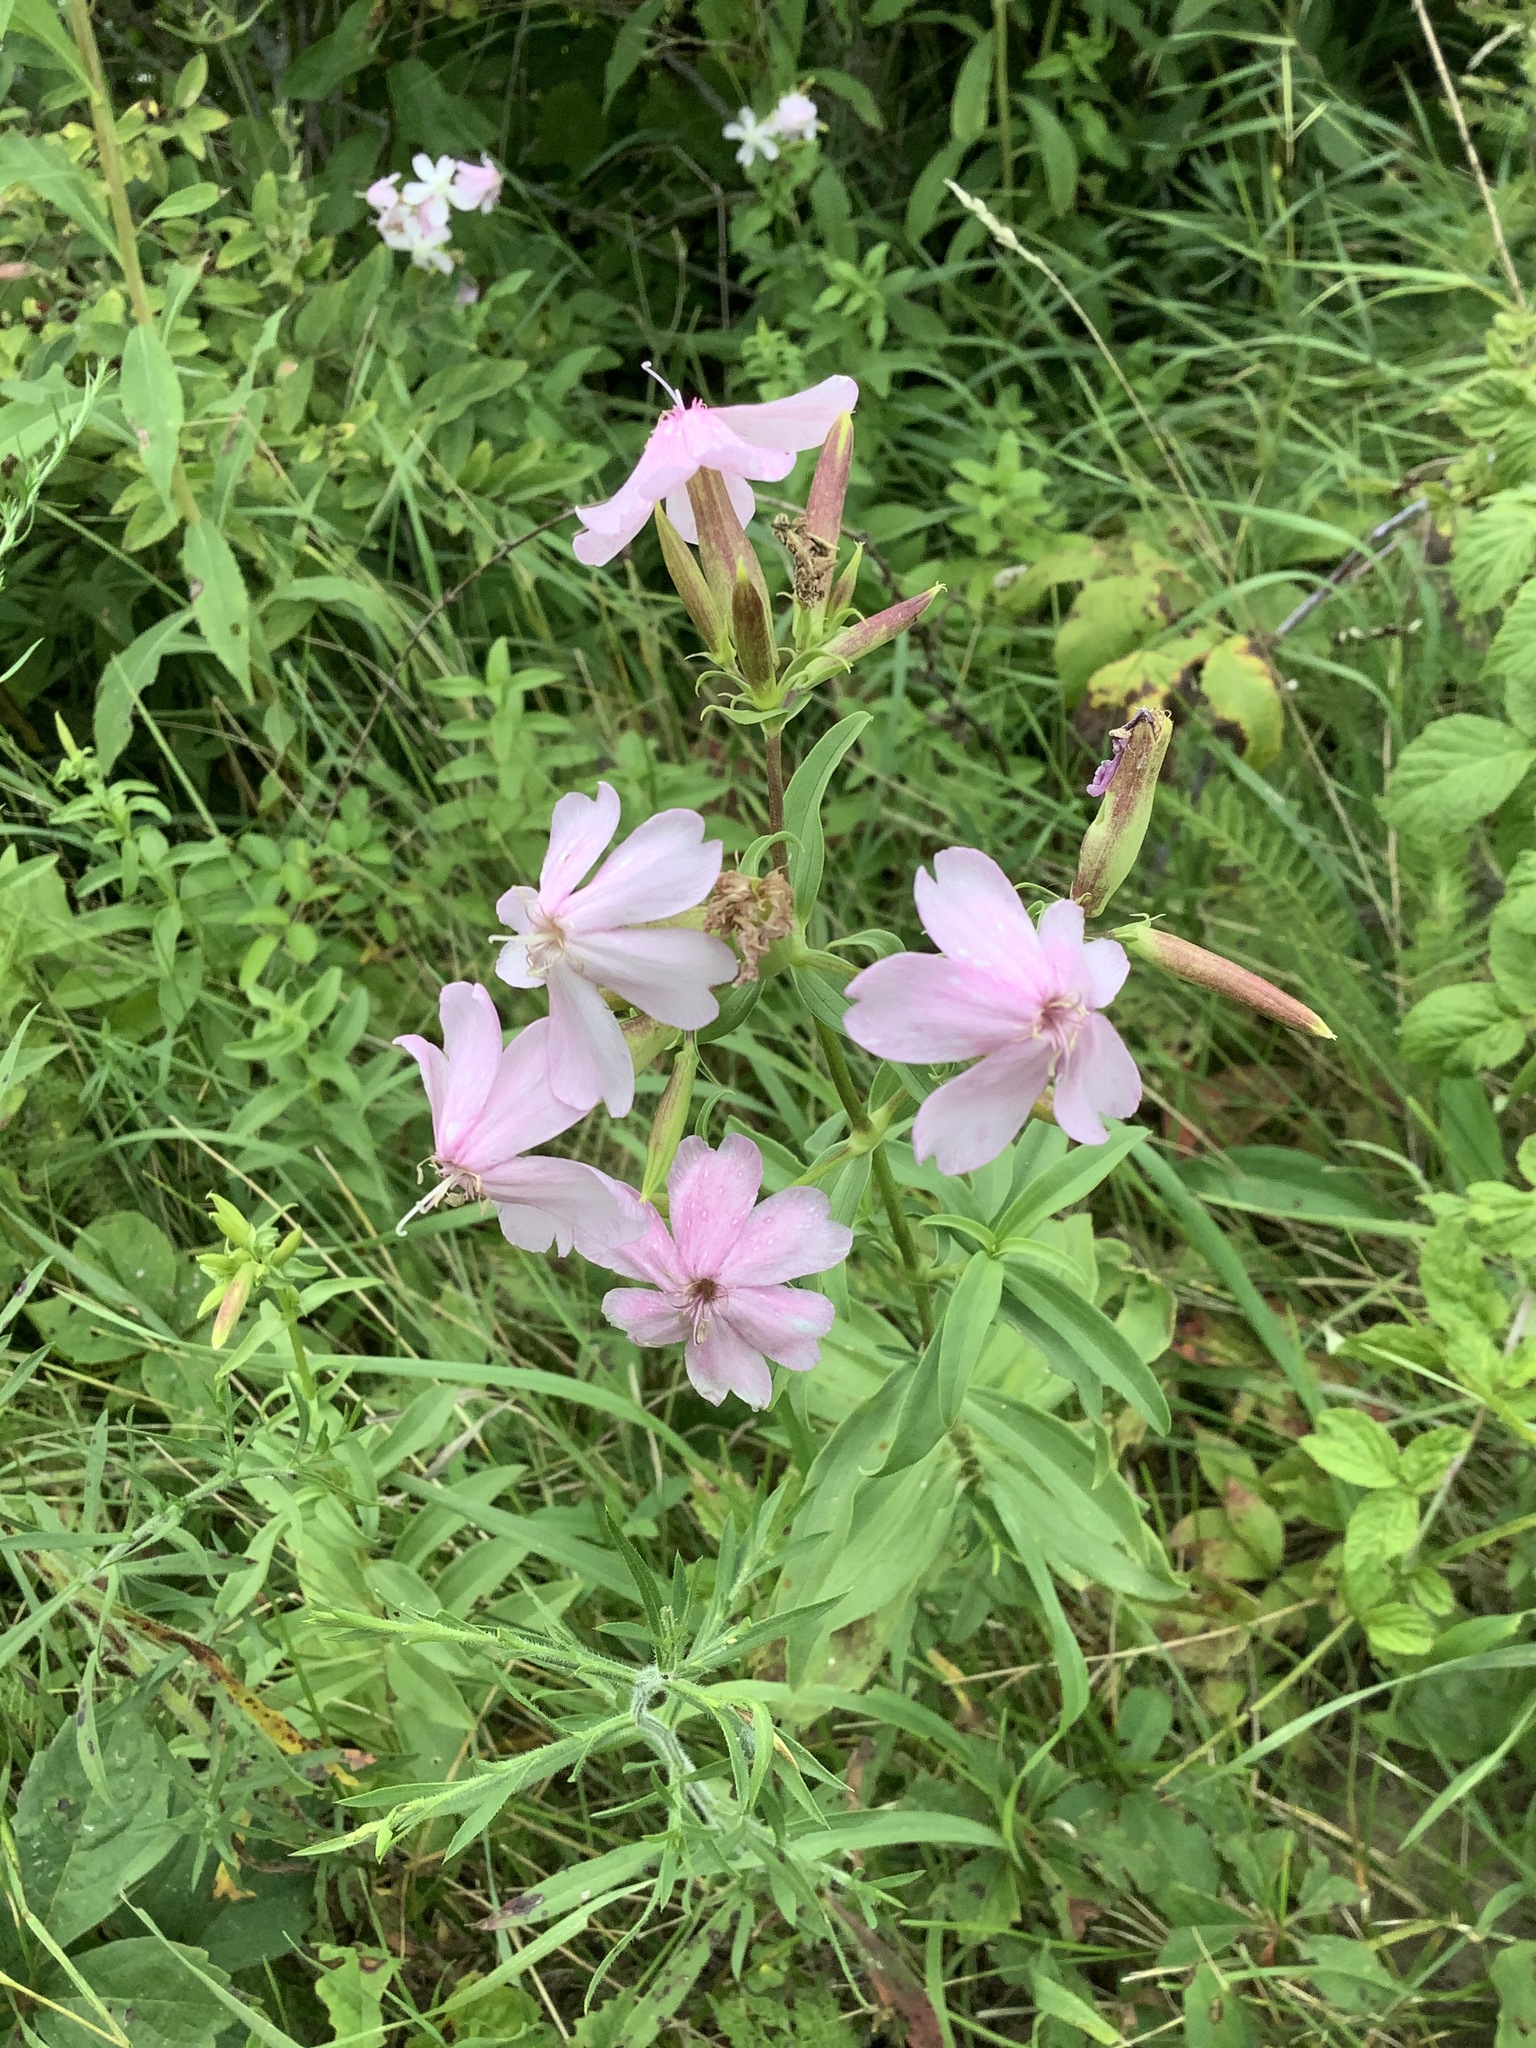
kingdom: Plantae
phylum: Tracheophyta
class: Magnoliopsida
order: Caryophyllales
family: Caryophyllaceae
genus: Saponaria
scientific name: Saponaria officinalis
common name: Soapwort
